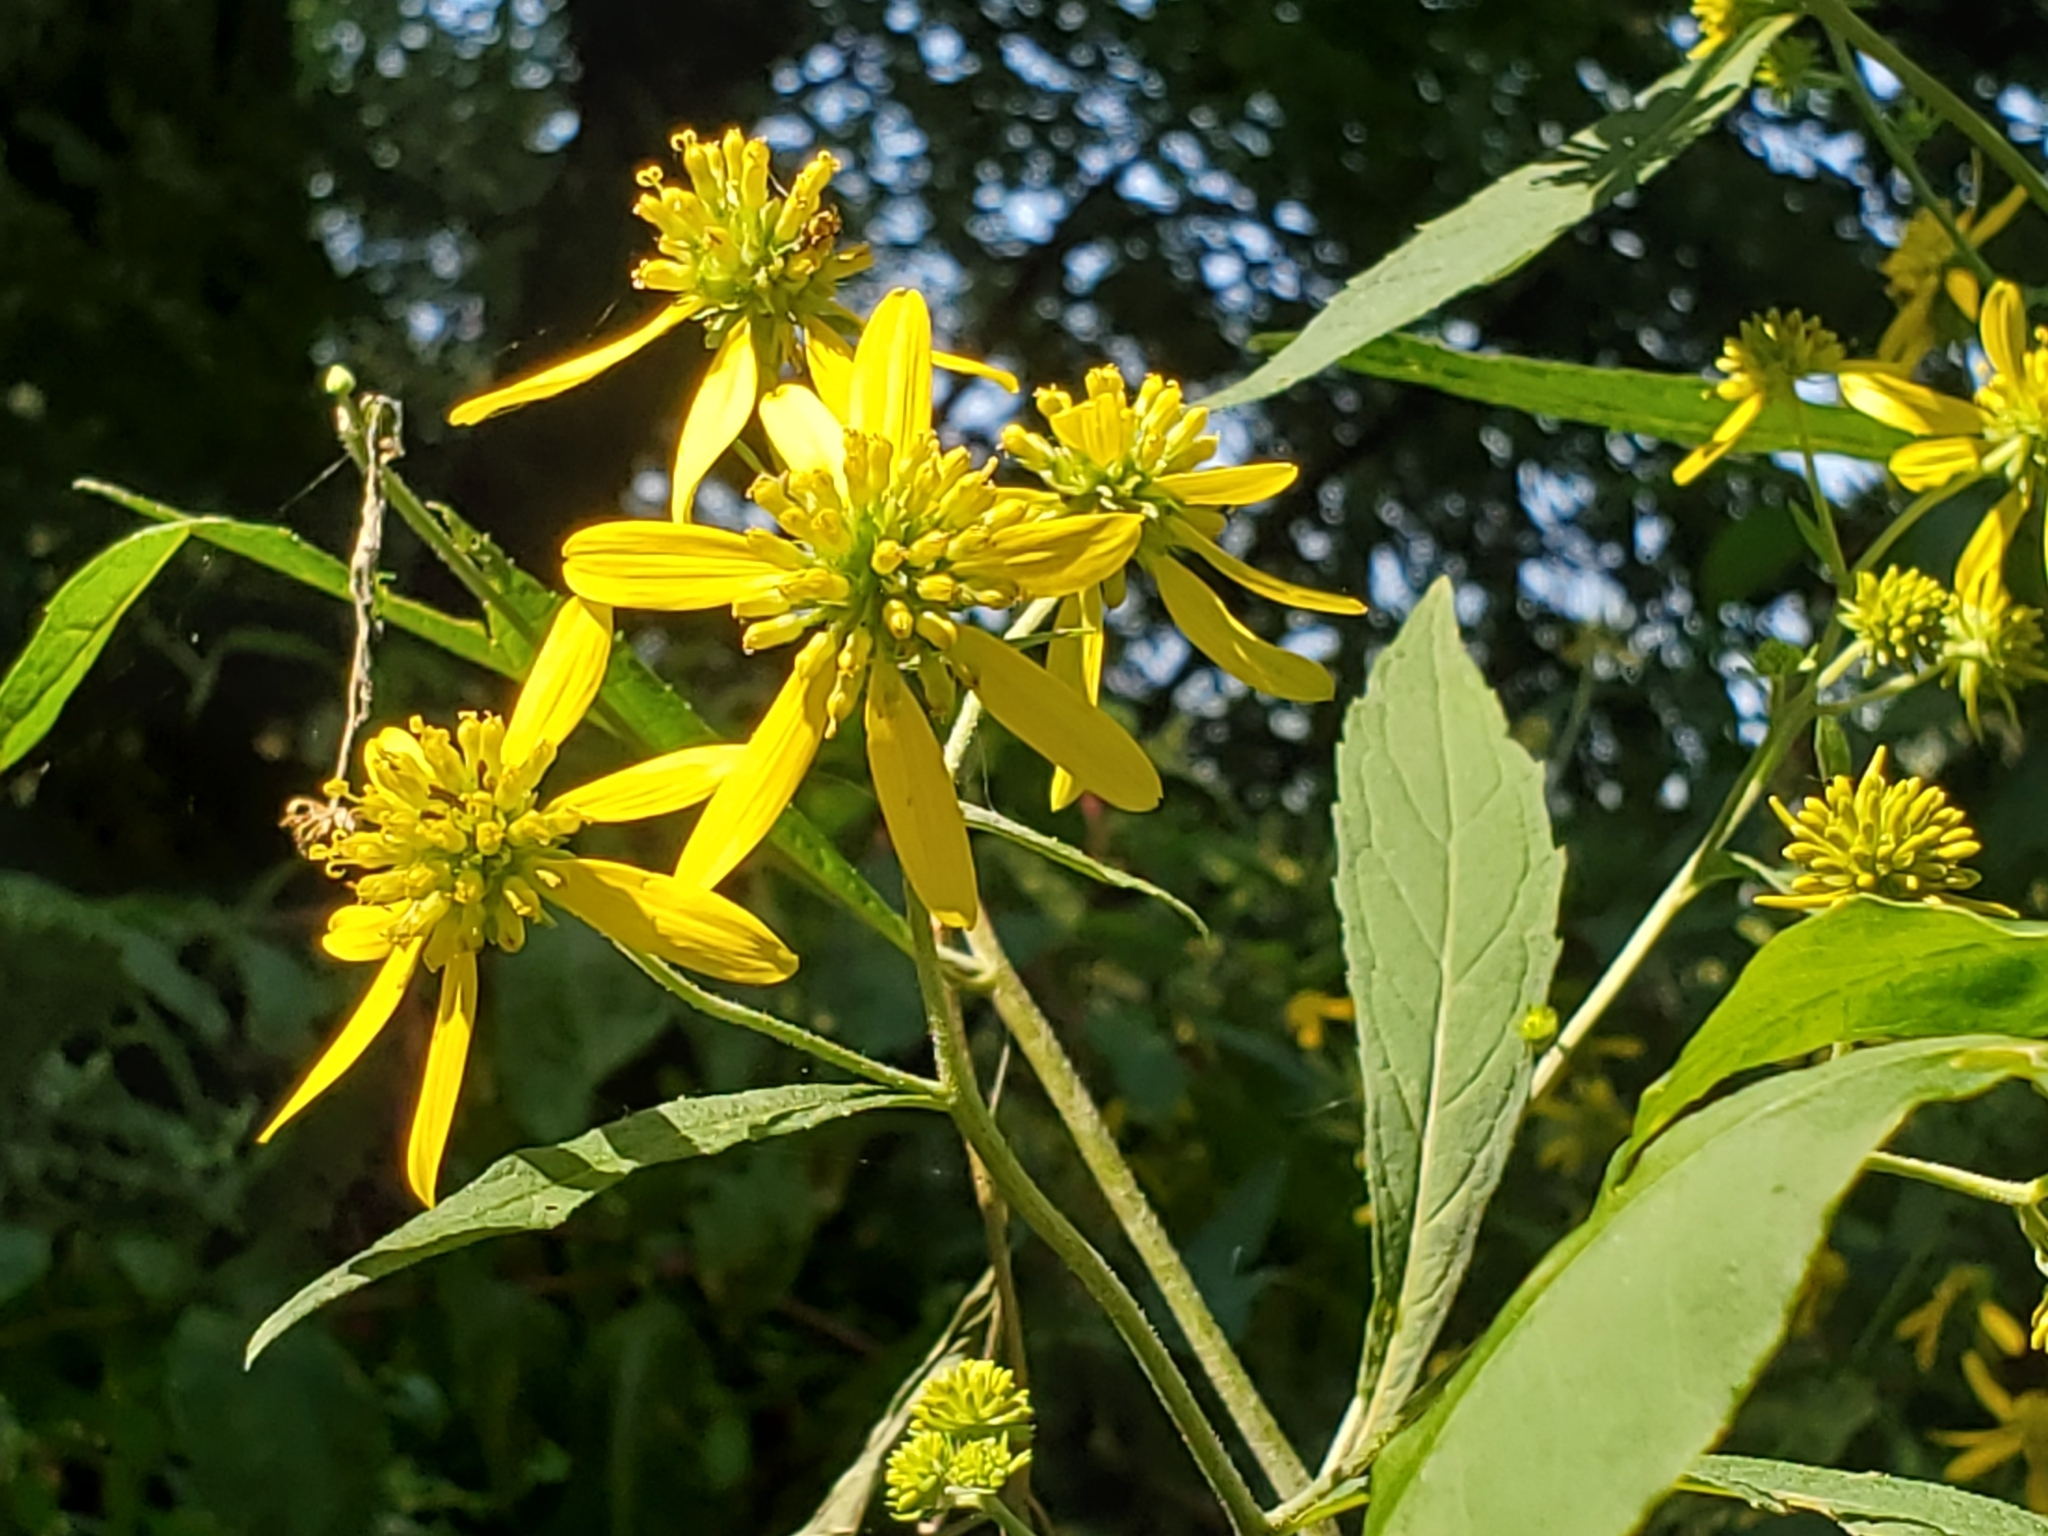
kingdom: Plantae
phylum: Tracheophyta
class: Magnoliopsida
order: Asterales
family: Asteraceae
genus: Verbesina
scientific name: Verbesina alternifolia
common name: Wingstem
